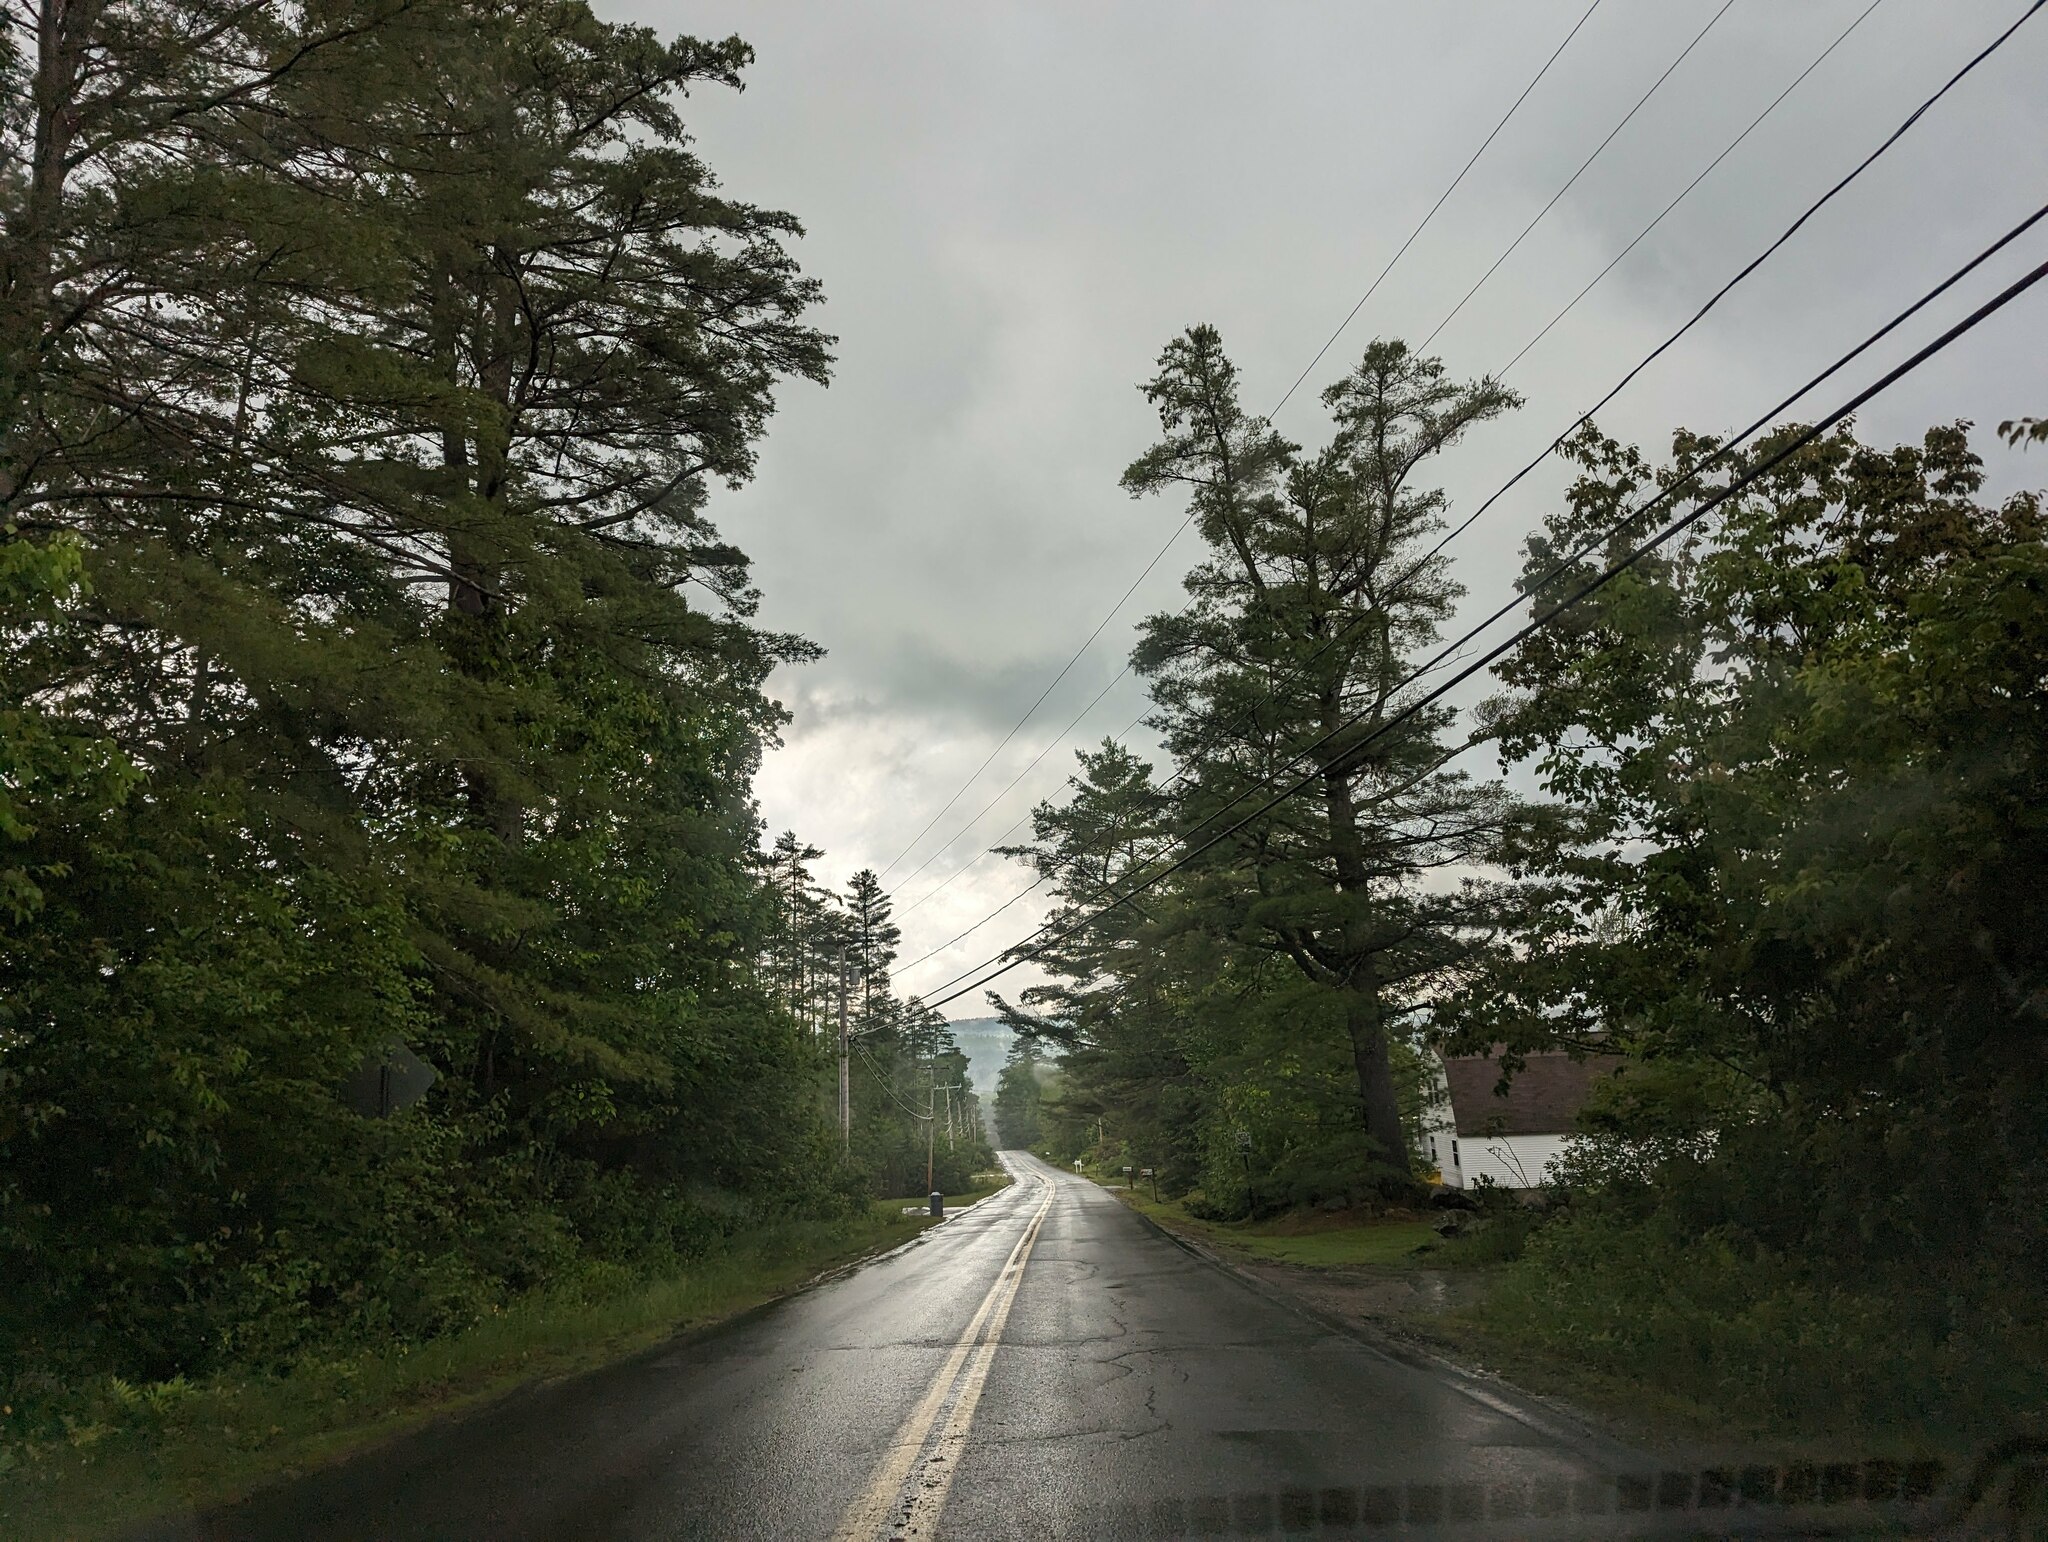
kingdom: Plantae
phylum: Tracheophyta
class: Pinopsida
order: Pinales
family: Pinaceae
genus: Pinus
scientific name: Pinus strobus
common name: Weymouth pine
